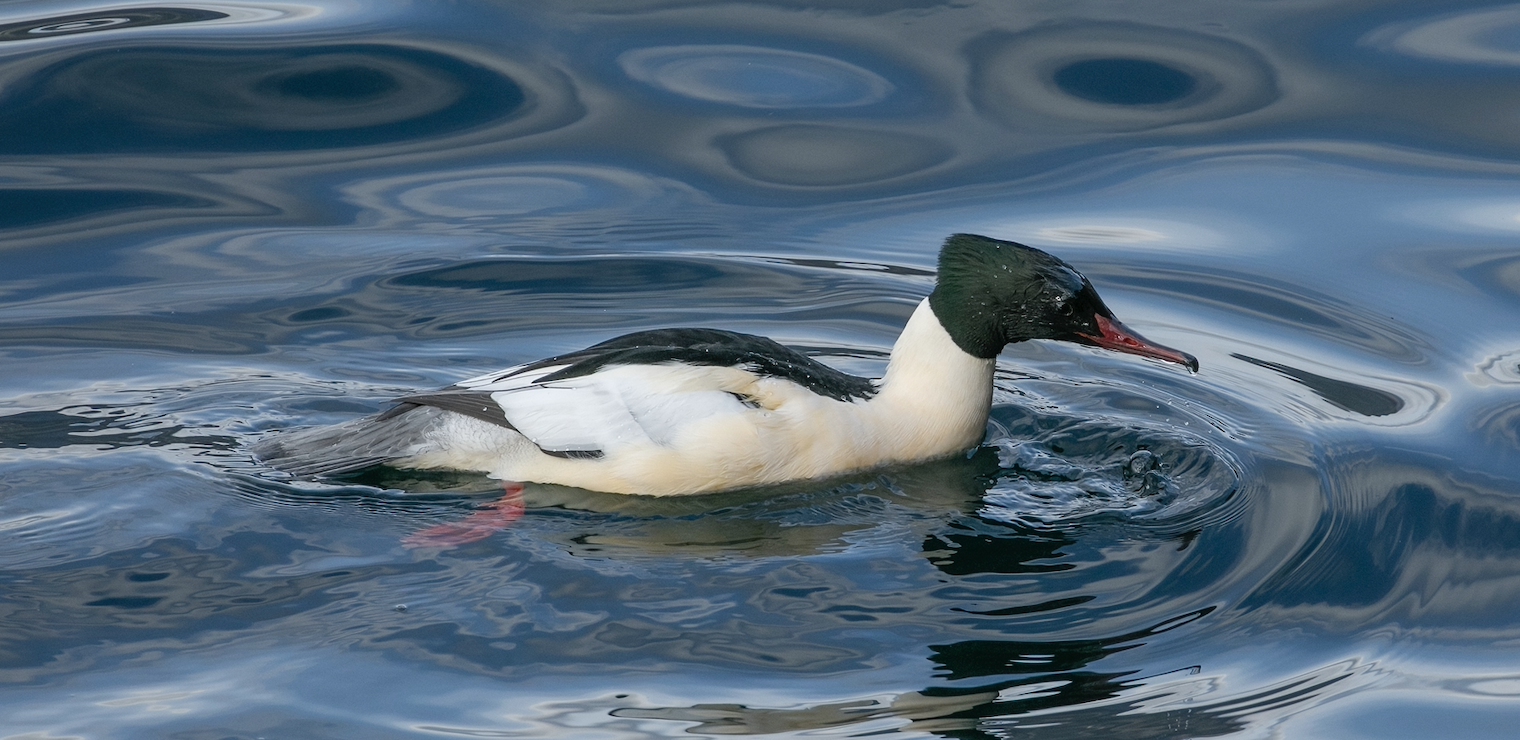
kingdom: Animalia
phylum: Chordata
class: Aves
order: Anseriformes
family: Anatidae
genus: Mergus
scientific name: Mergus merganser
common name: Common merganser
